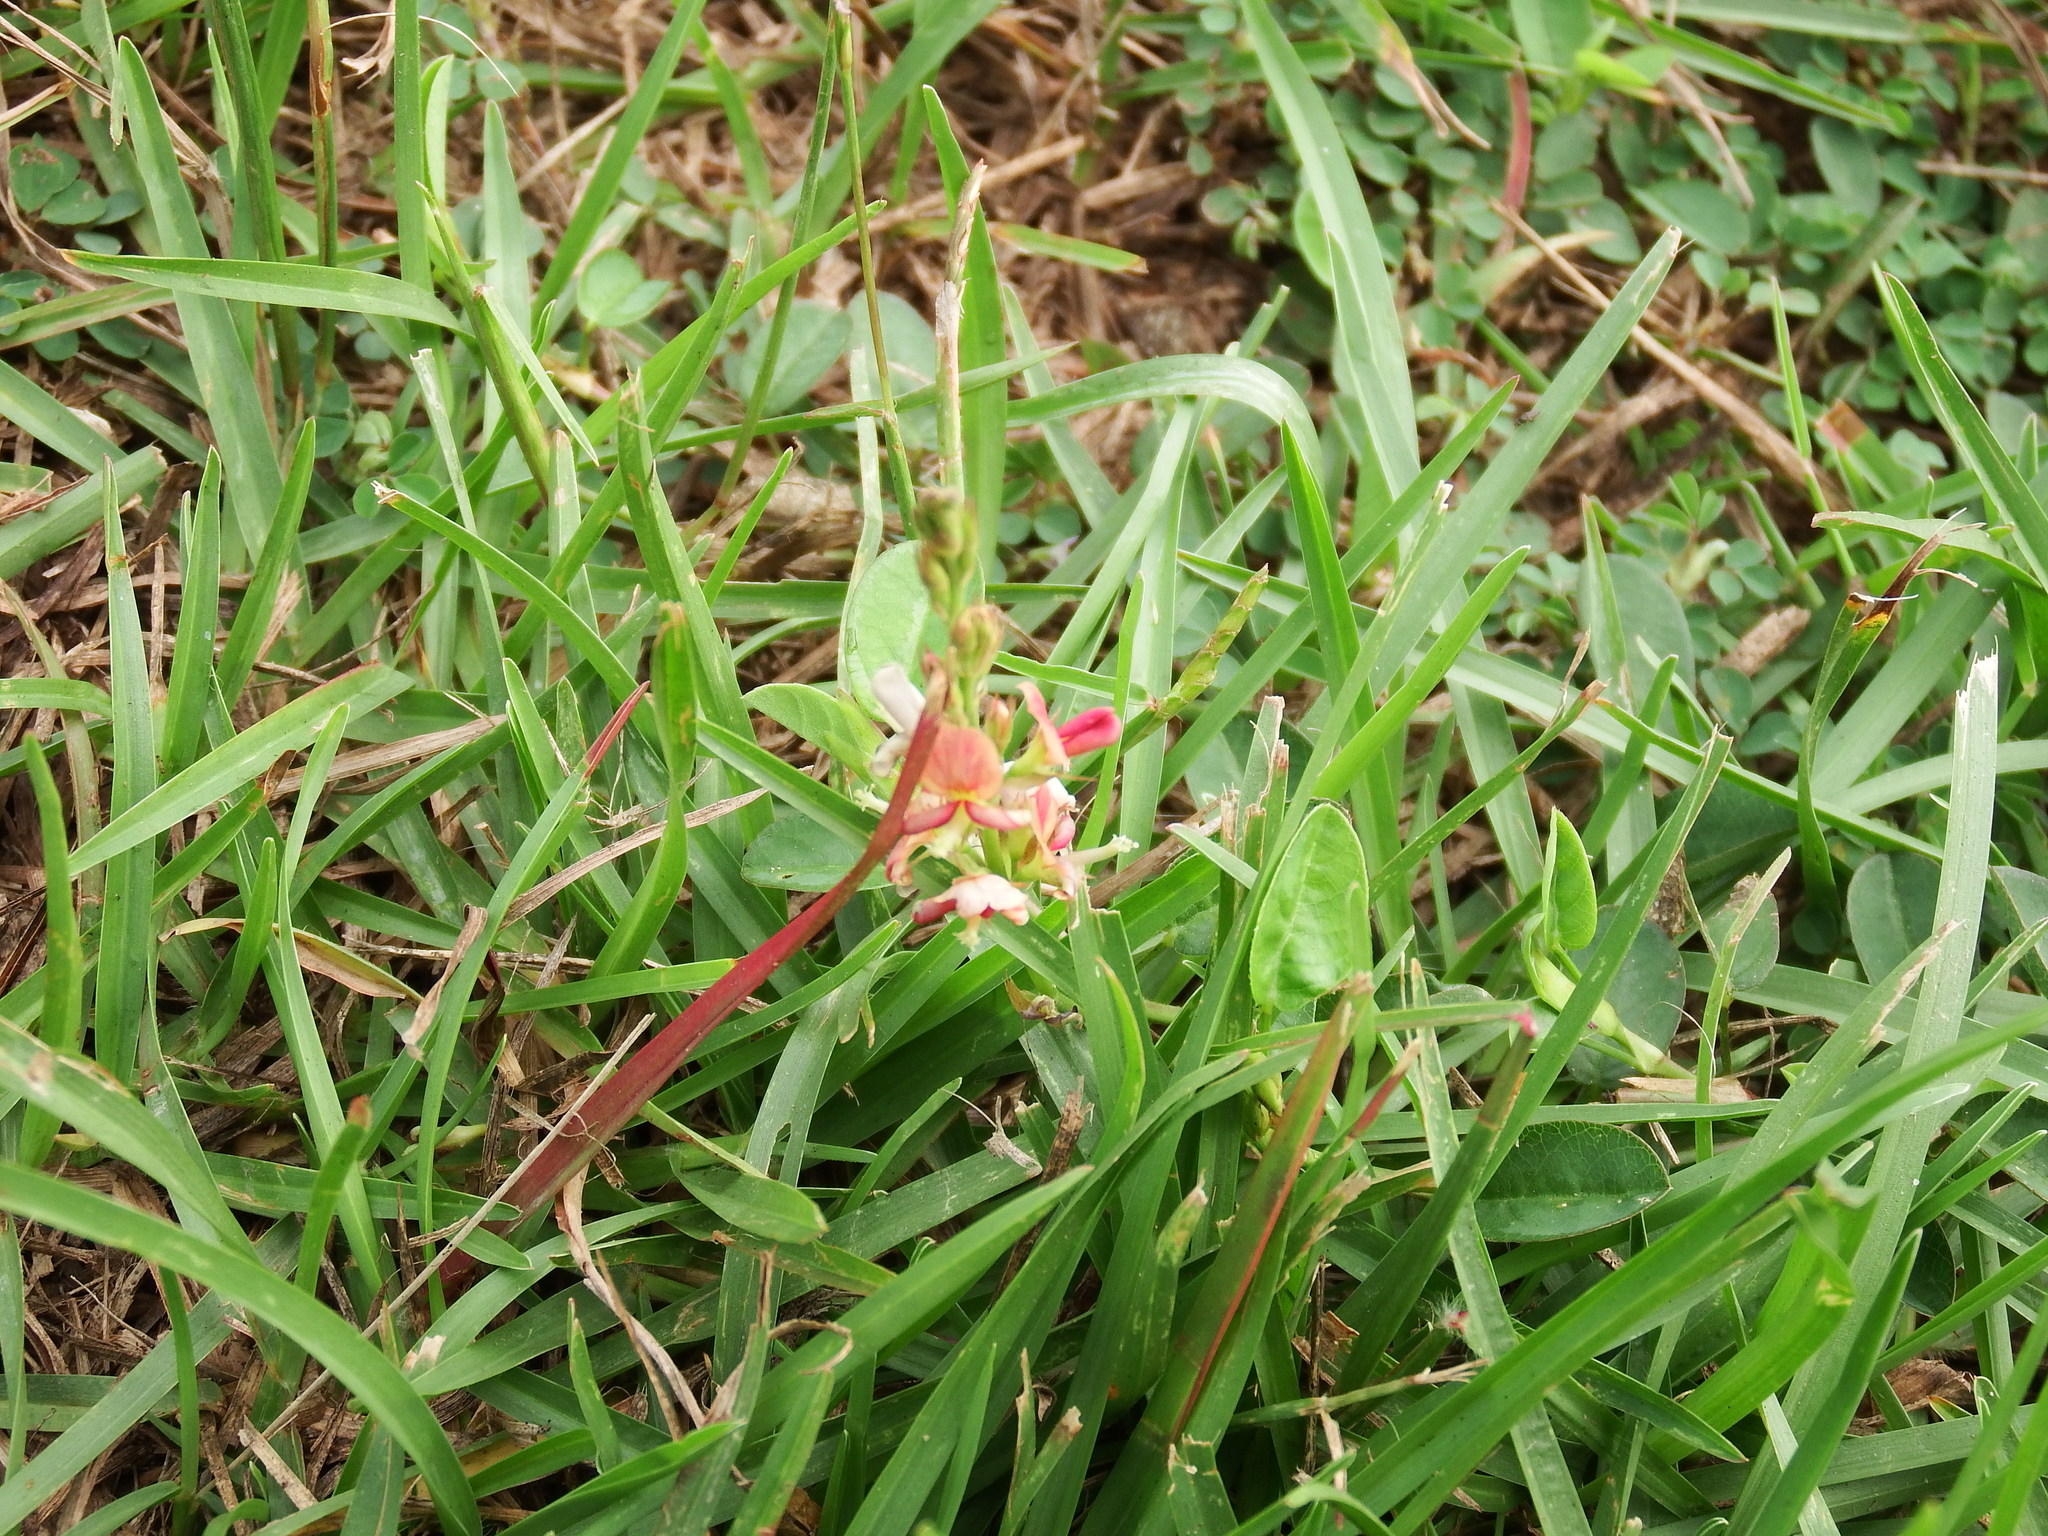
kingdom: Plantae
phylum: Tracheophyta
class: Magnoliopsida
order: Fabales
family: Fabaceae
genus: Alysicarpus
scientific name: Alysicarpus vaginalis
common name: White moneywort
